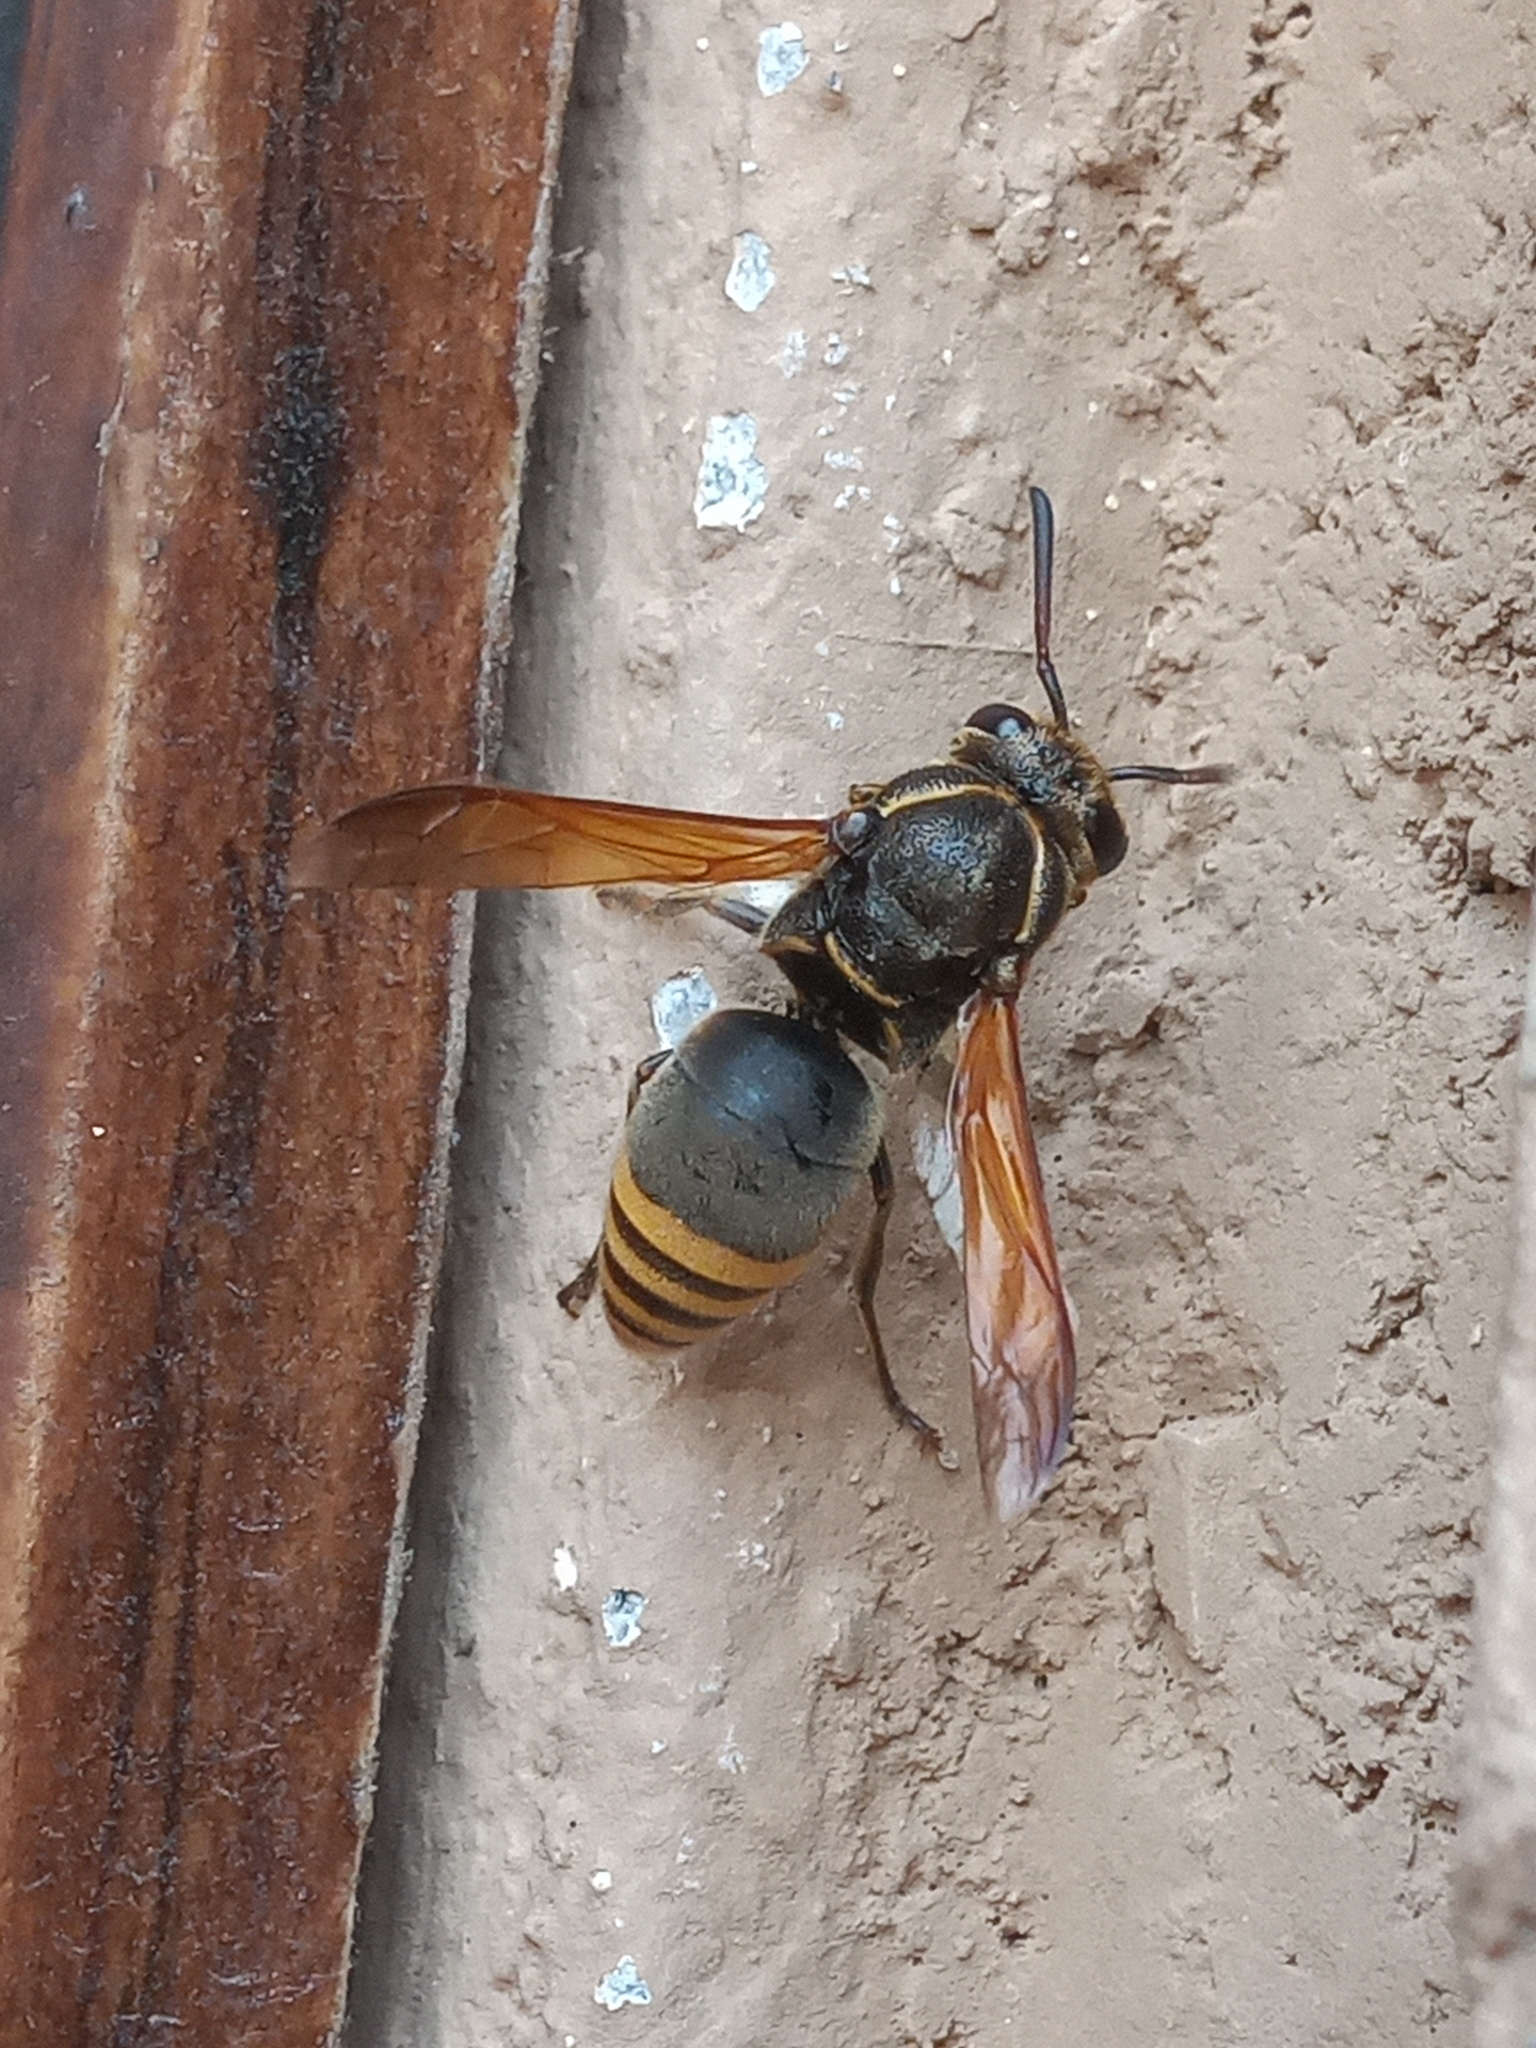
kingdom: Animalia
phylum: Arthropoda
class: Insecta
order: Hymenoptera
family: Eumenidae
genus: Pachodynerus
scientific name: Pachodynerus nasidens
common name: Key hole wasp
